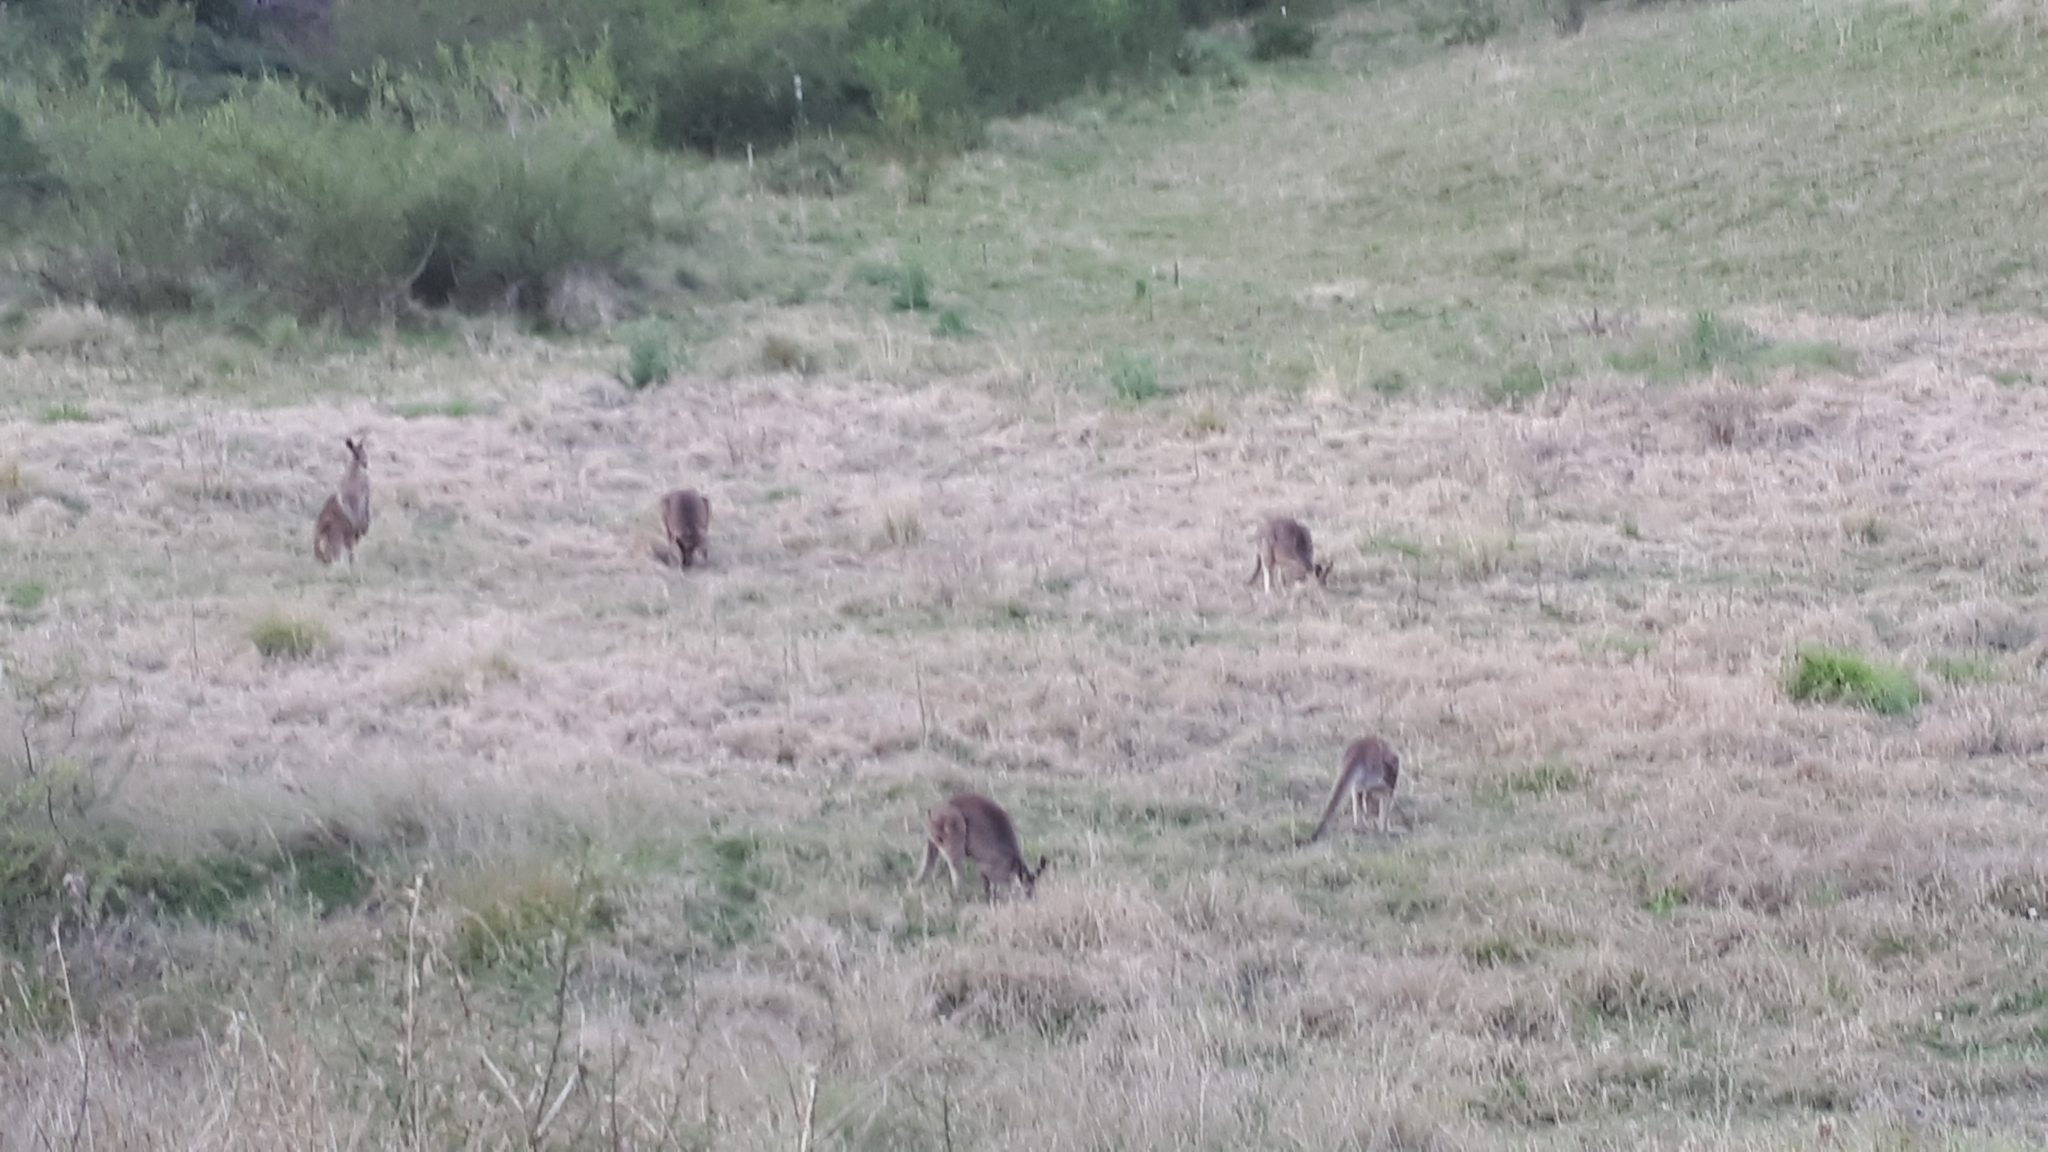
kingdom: Animalia
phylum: Chordata
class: Mammalia
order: Diprotodontia
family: Macropodidae
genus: Macropus
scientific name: Macropus giganteus
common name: Eastern grey kangaroo
